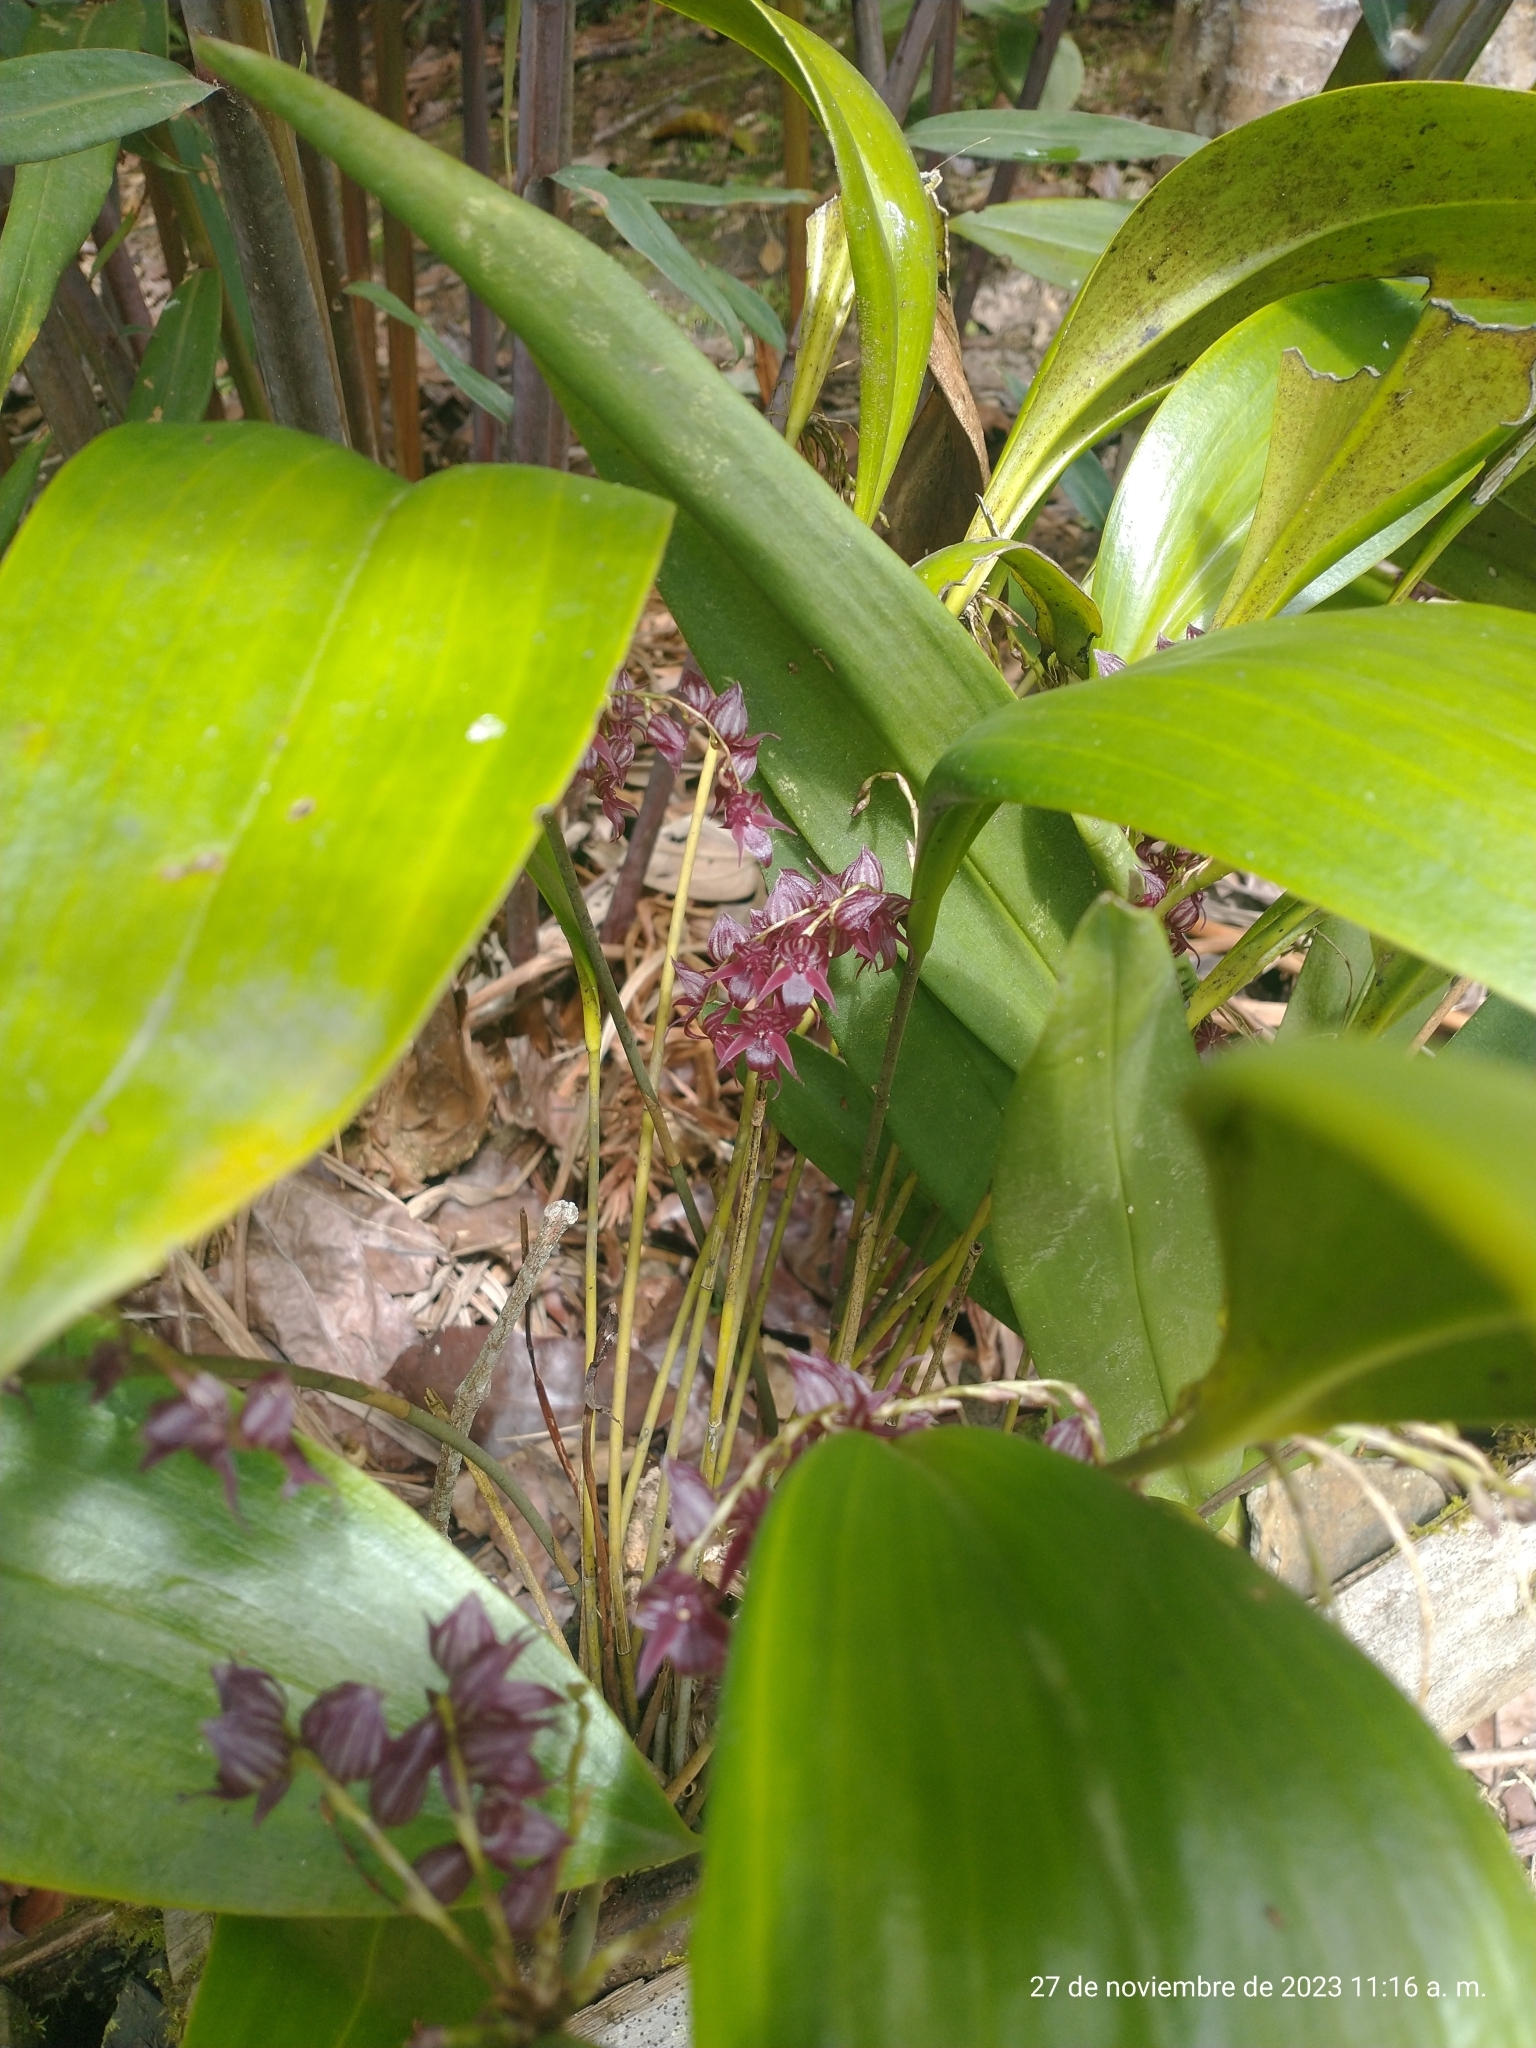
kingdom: Plantae
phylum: Tracheophyta
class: Liliopsida
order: Asparagales
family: Orchidaceae
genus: Pleurothallis
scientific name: Pleurothallis lindenii
